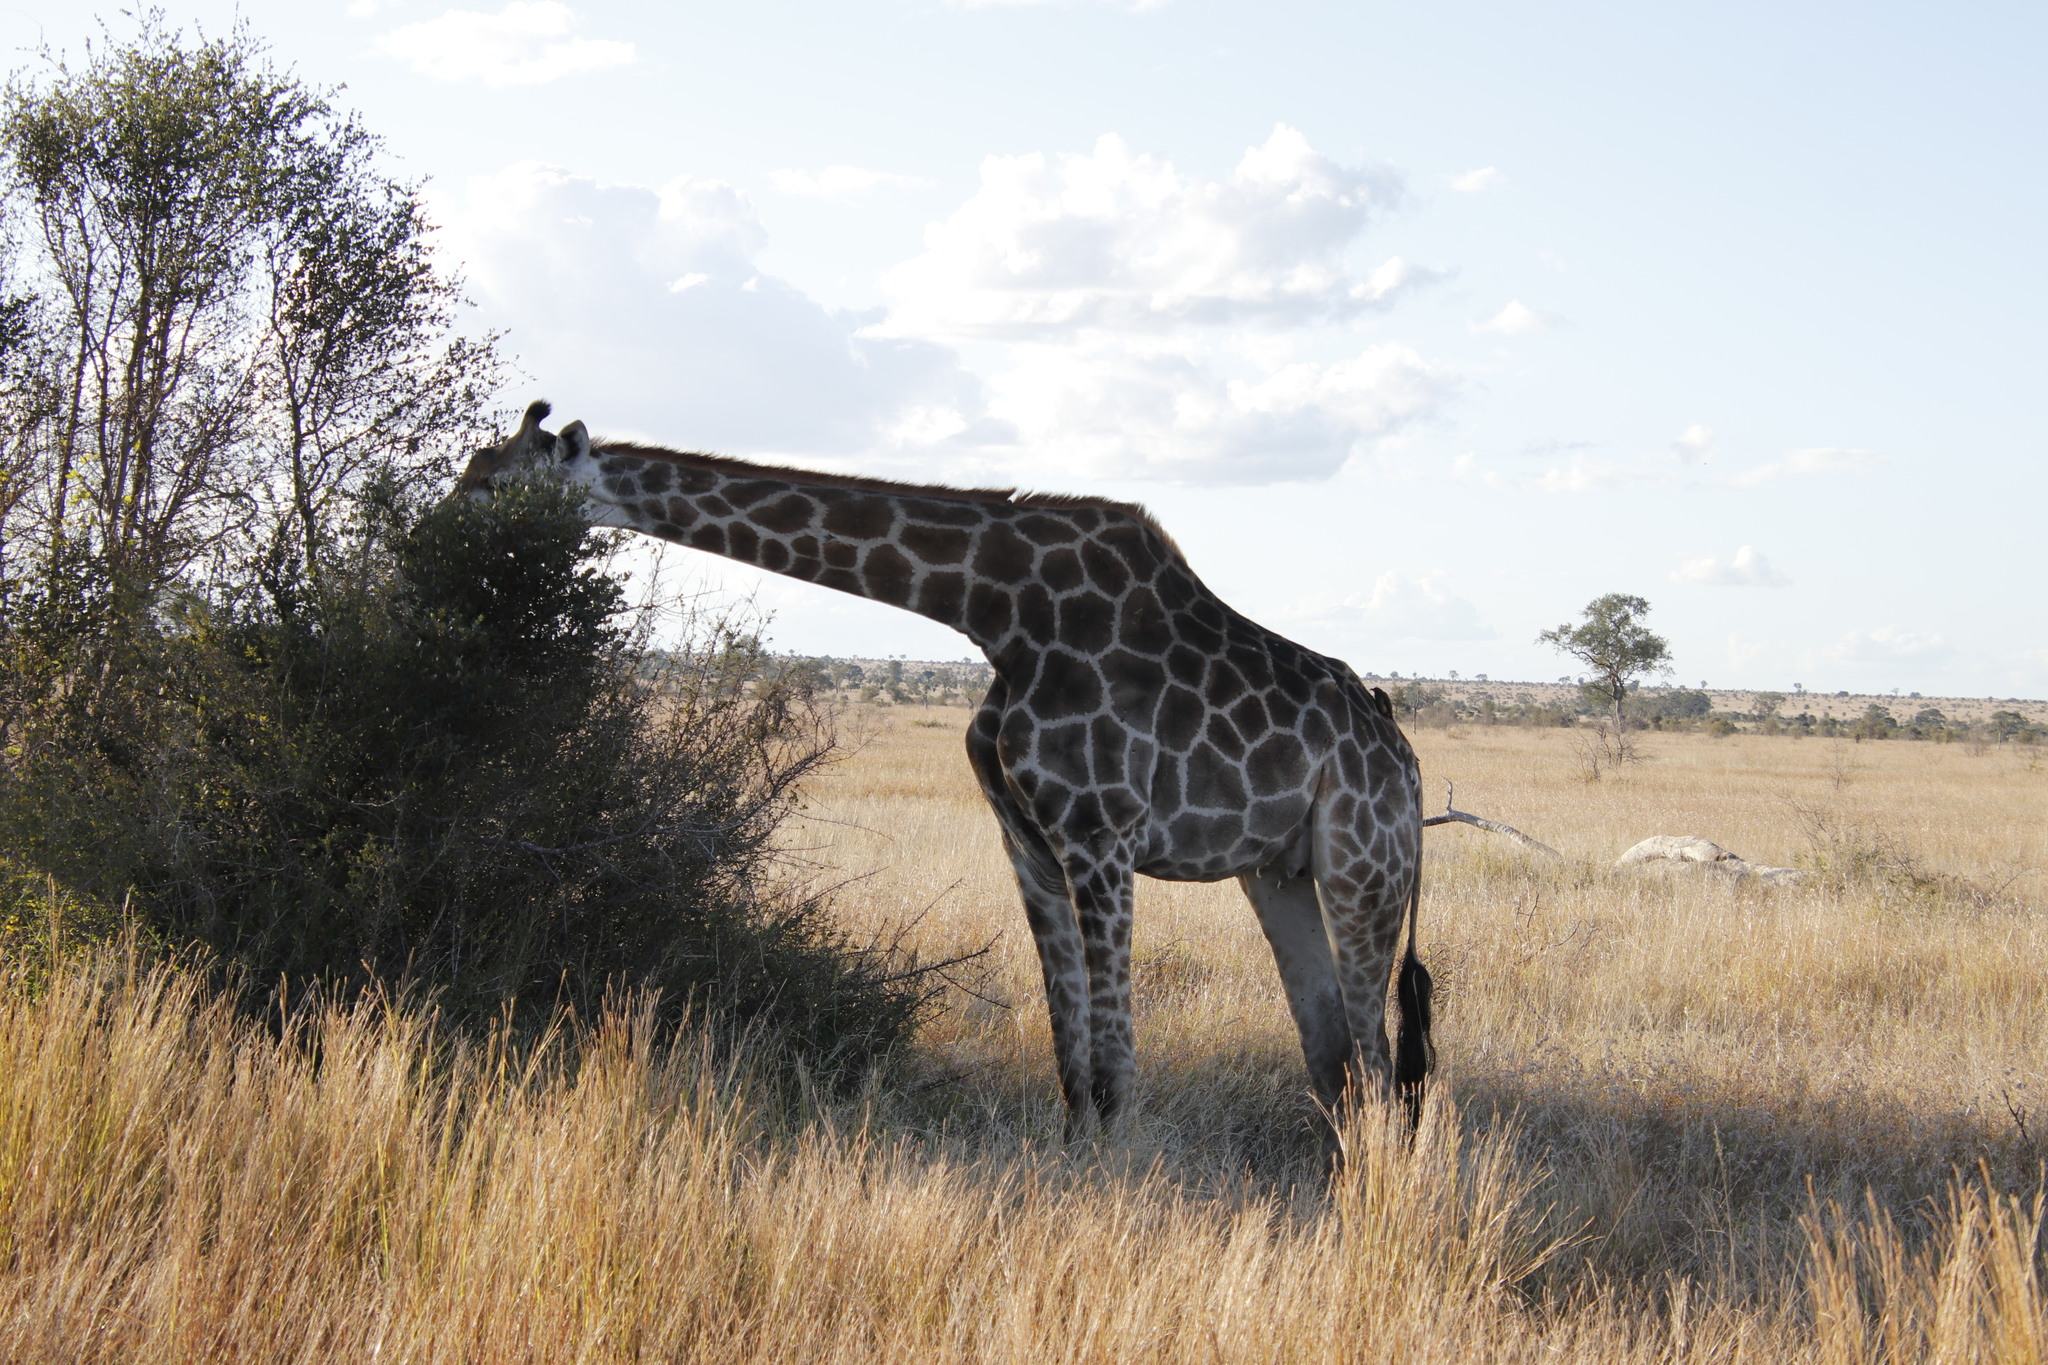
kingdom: Animalia
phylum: Chordata
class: Mammalia
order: Artiodactyla
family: Giraffidae
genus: Giraffa
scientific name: Giraffa giraffa
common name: Southern giraffe
